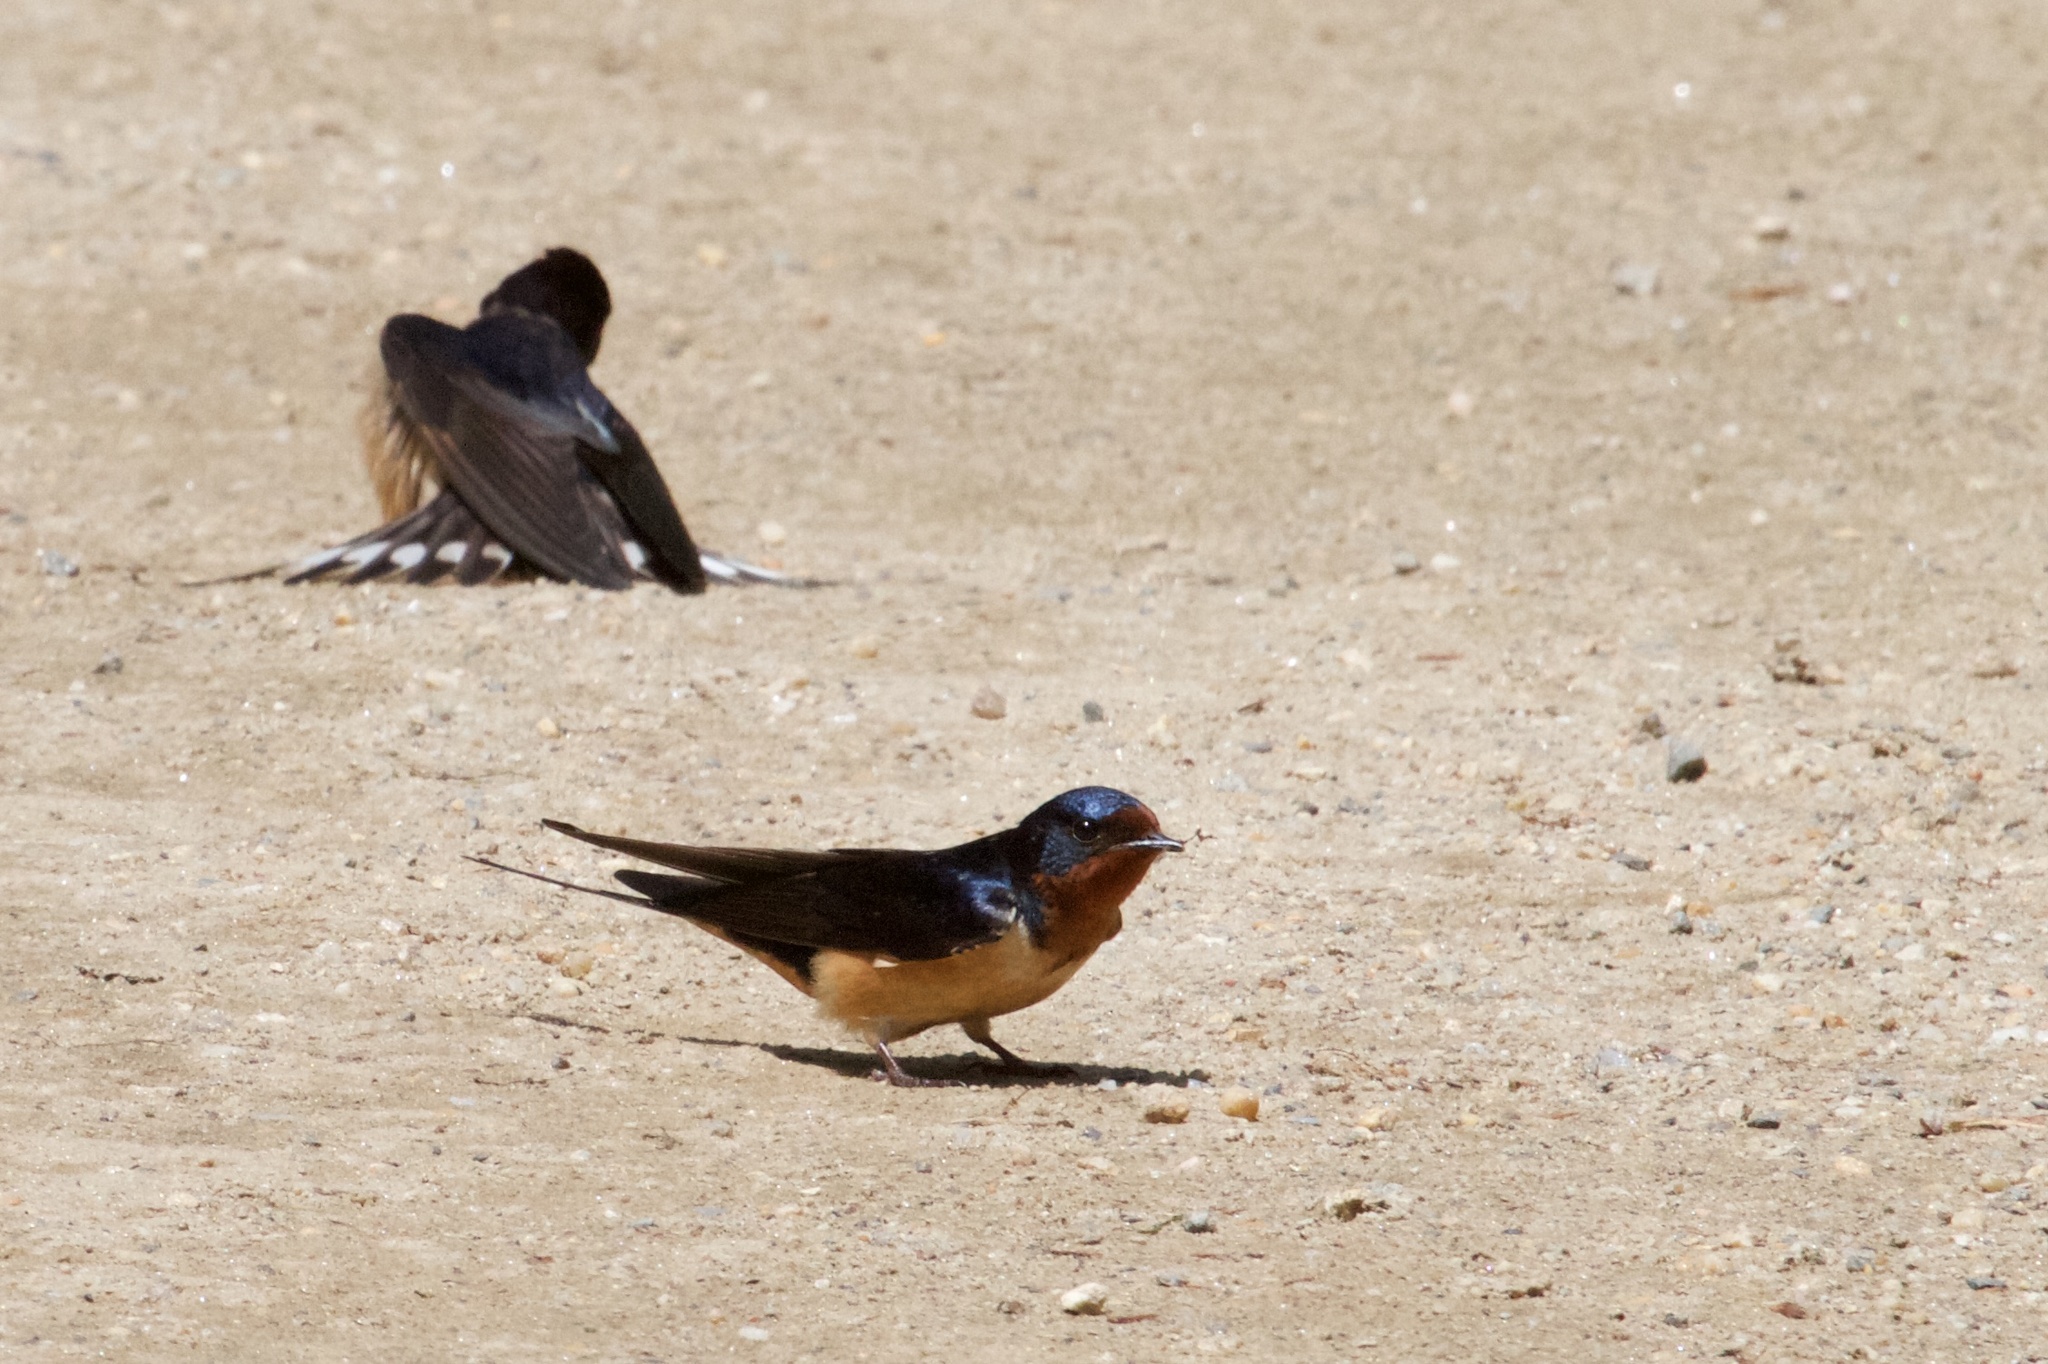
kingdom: Animalia
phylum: Chordata
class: Aves
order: Passeriformes
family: Hirundinidae
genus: Hirundo
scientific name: Hirundo rustica
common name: Barn swallow
